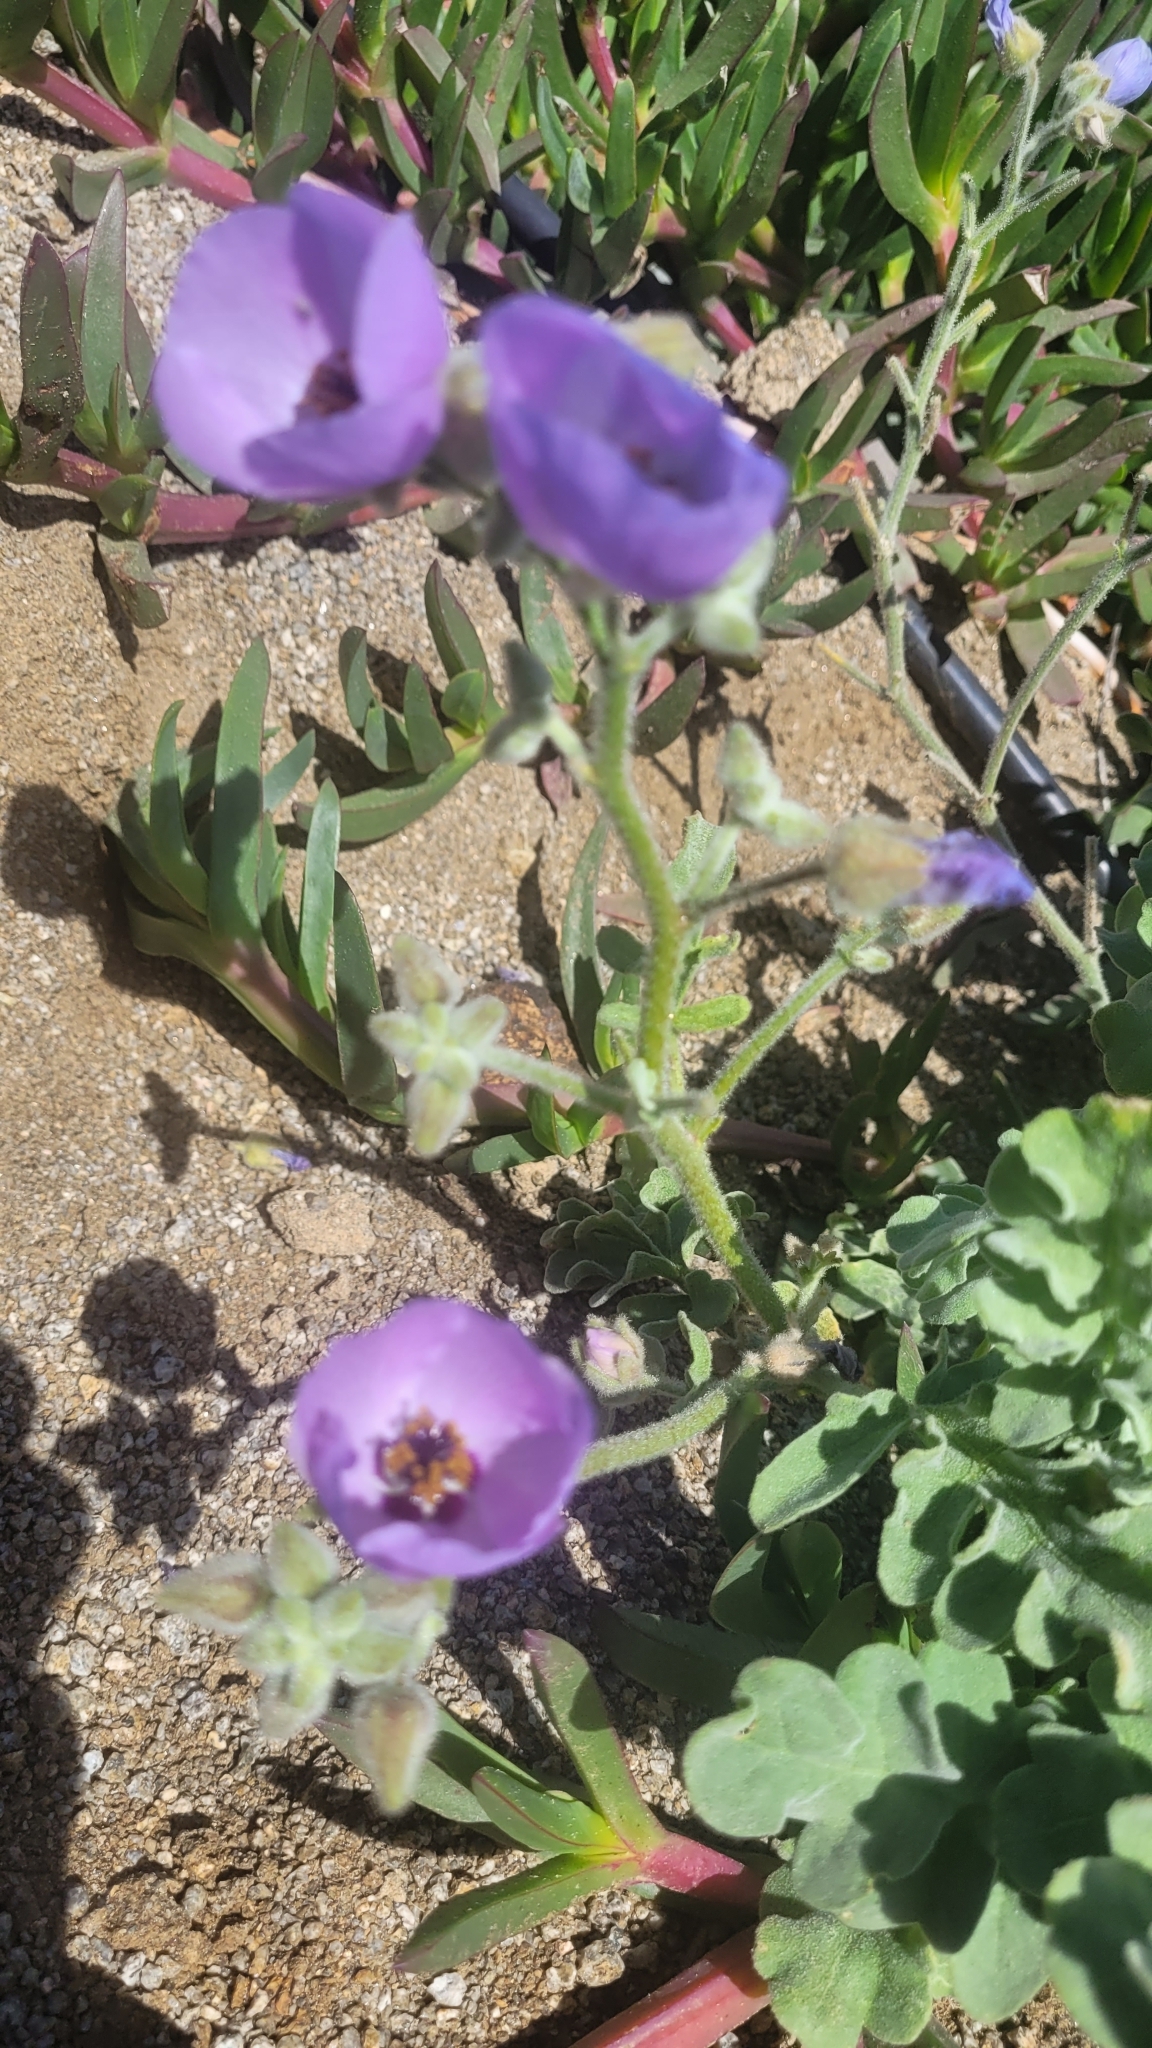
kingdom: Plantae
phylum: Tracheophyta
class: Magnoliopsida
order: Malvales
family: Malvaceae
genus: Cristaria
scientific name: Cristaria glaucophylla
